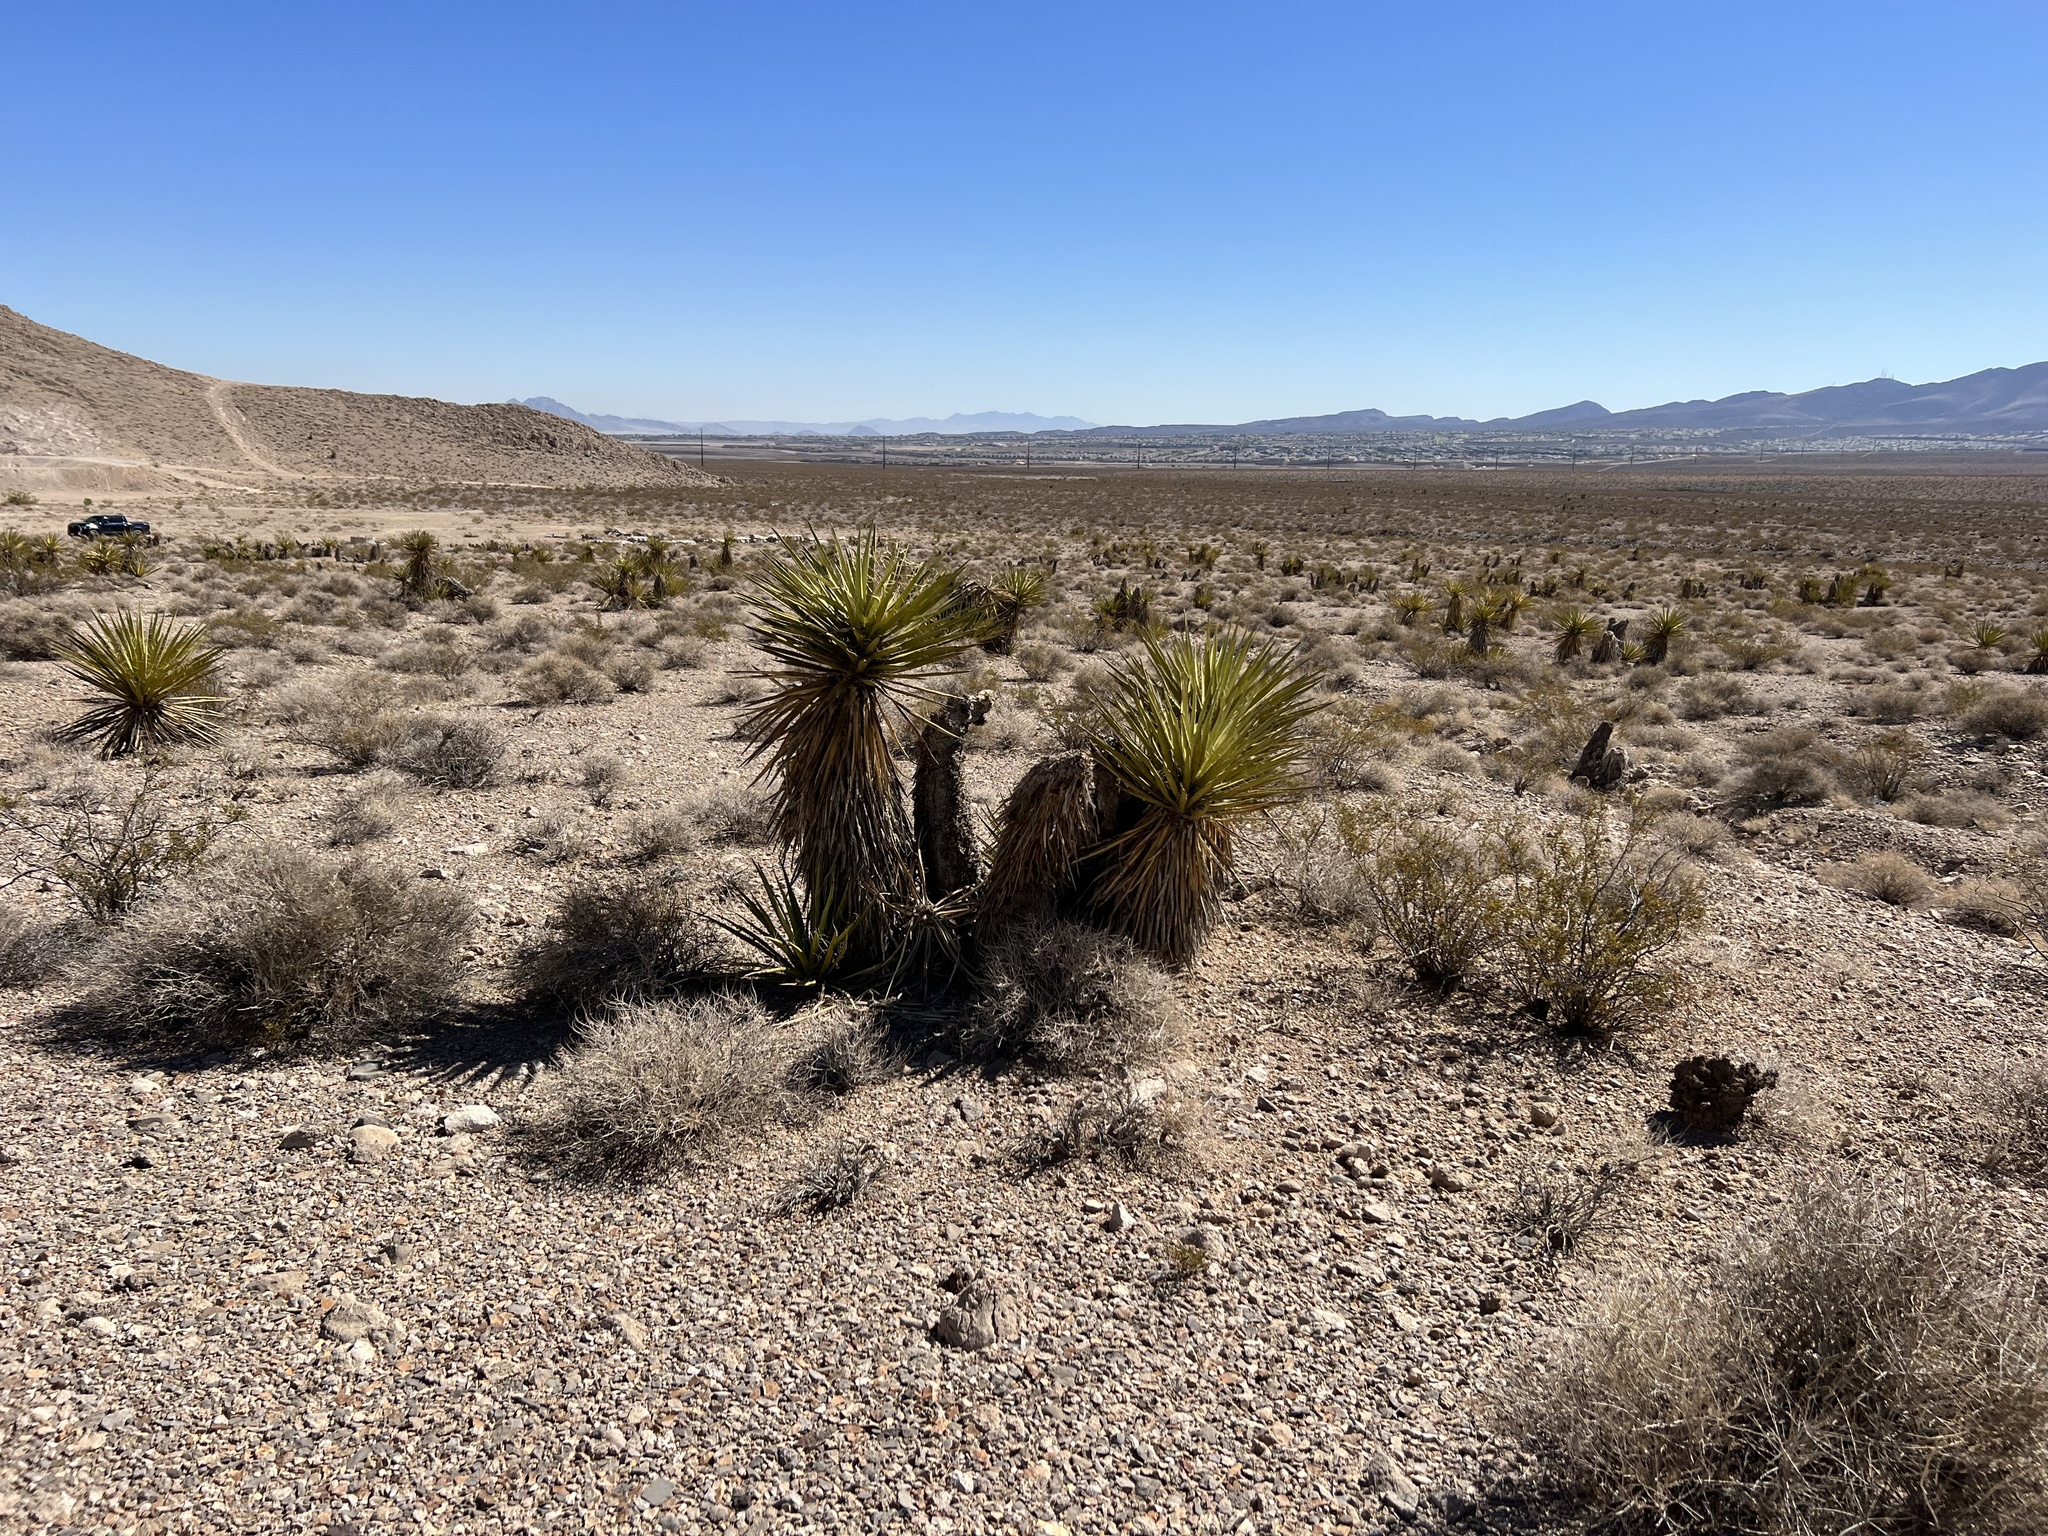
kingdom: Plantae
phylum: Tracheophyta
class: Liliopsida
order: Asparagales
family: Asparagaceae
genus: Yucca
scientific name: Yucca schidigera
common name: Mojave yucca
